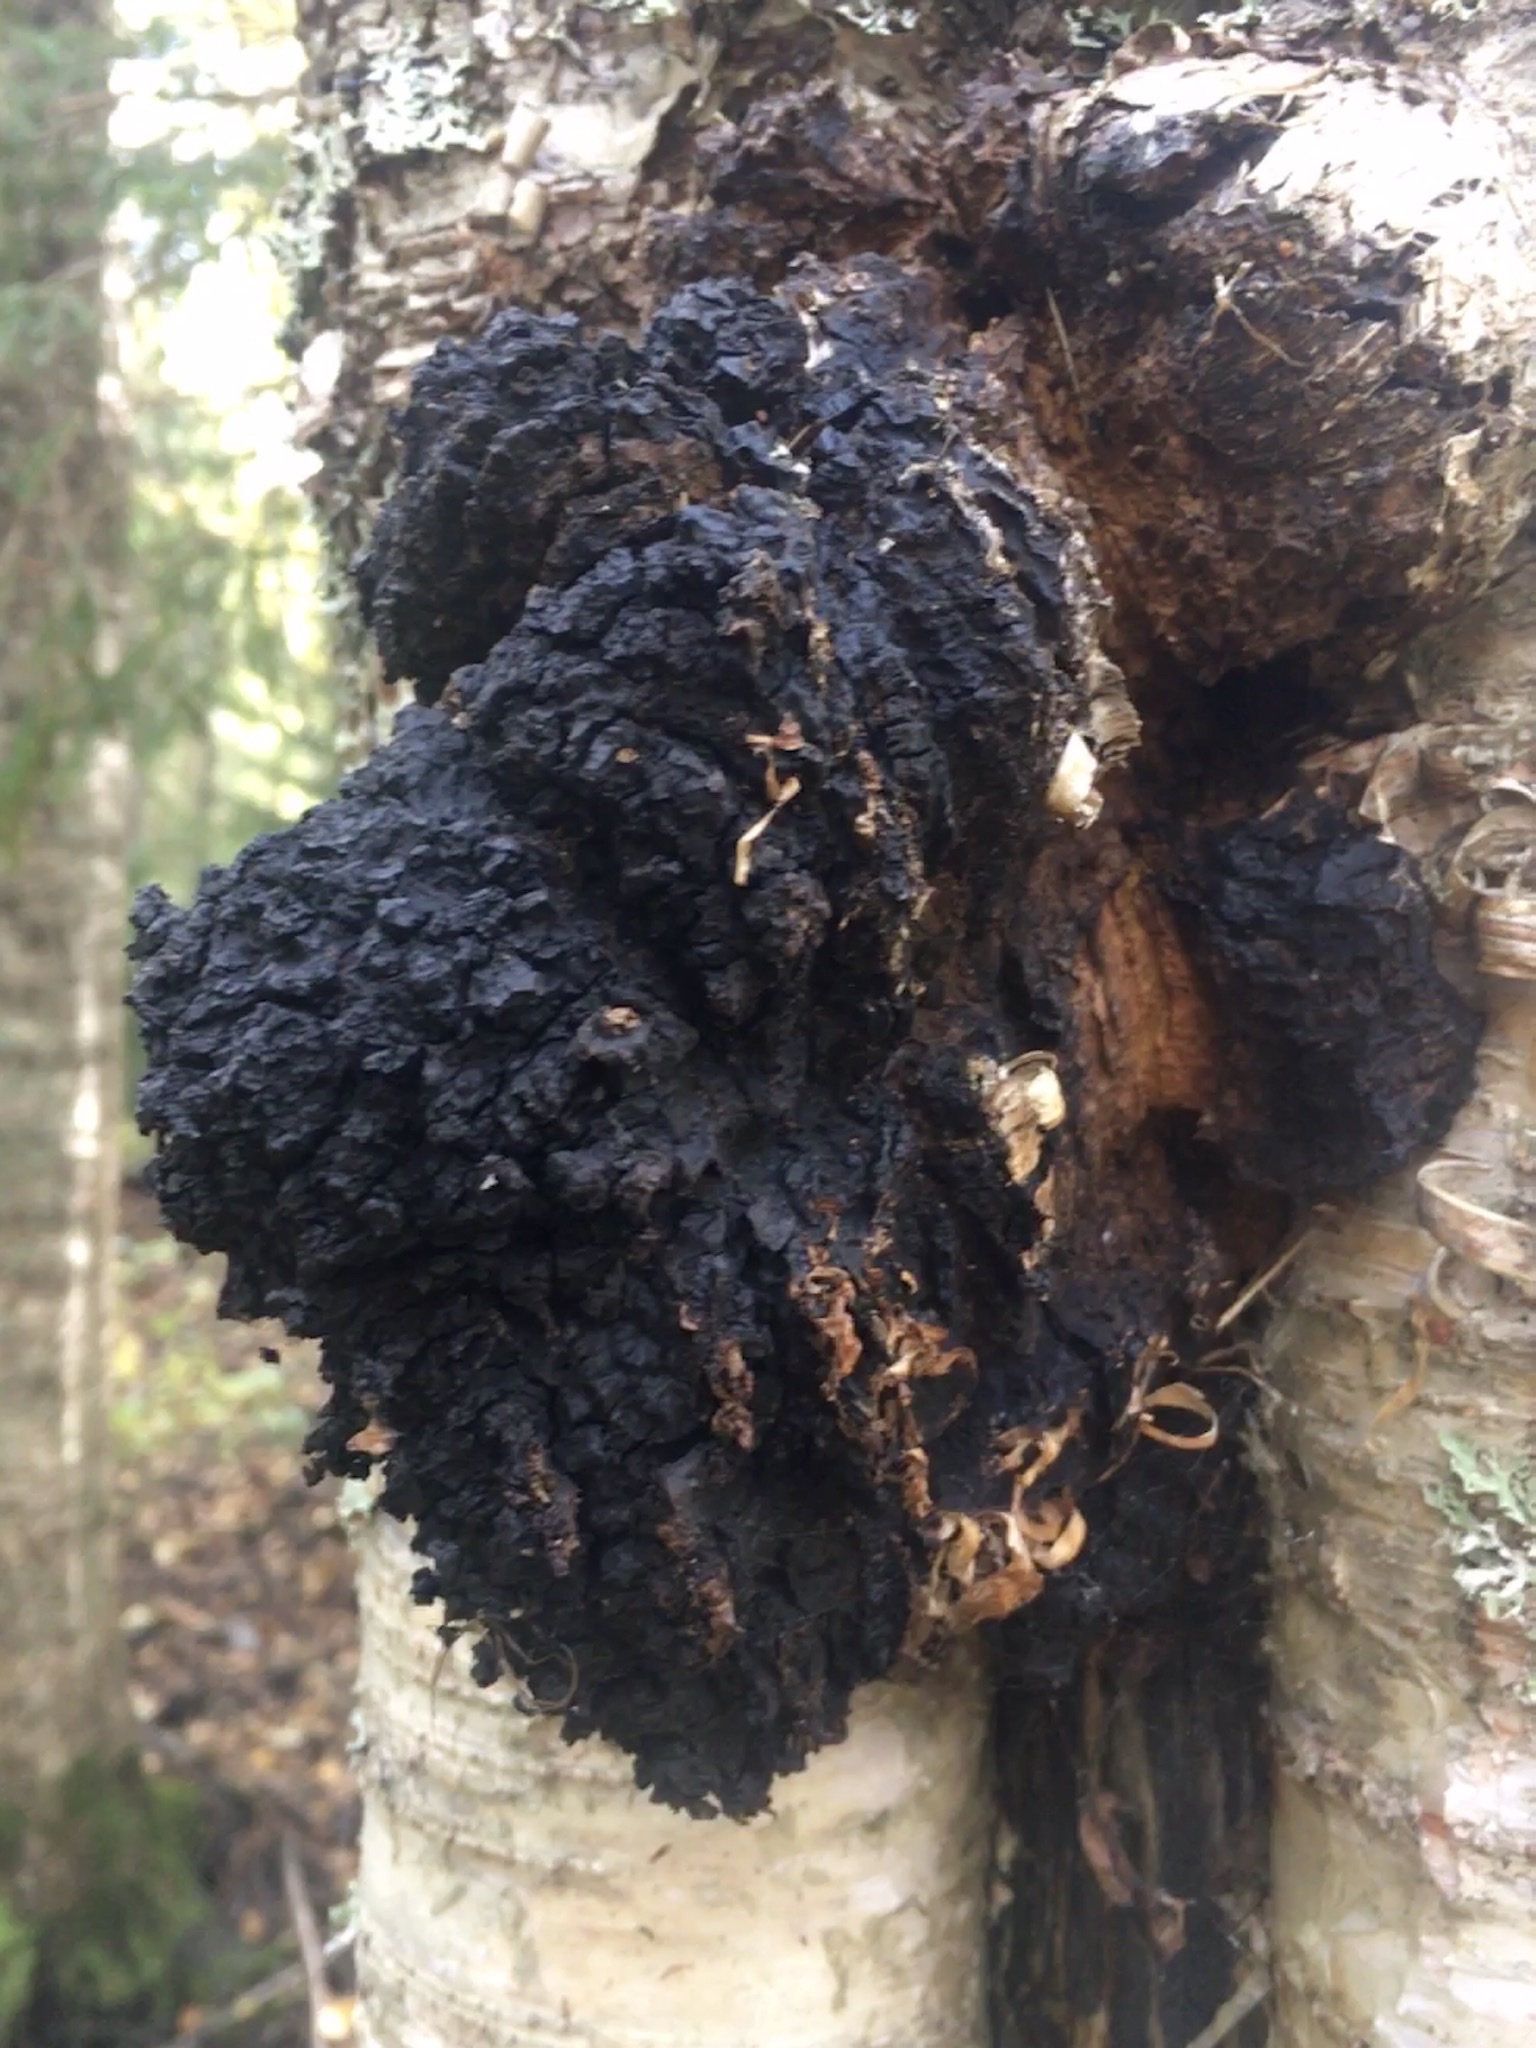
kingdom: Fungi
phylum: Basidiomycota
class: Agaricomycetes
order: Hymenochaetales
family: Hymenochaetaceae
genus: Inonotus
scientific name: Inonotus obliquus
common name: Chaga
